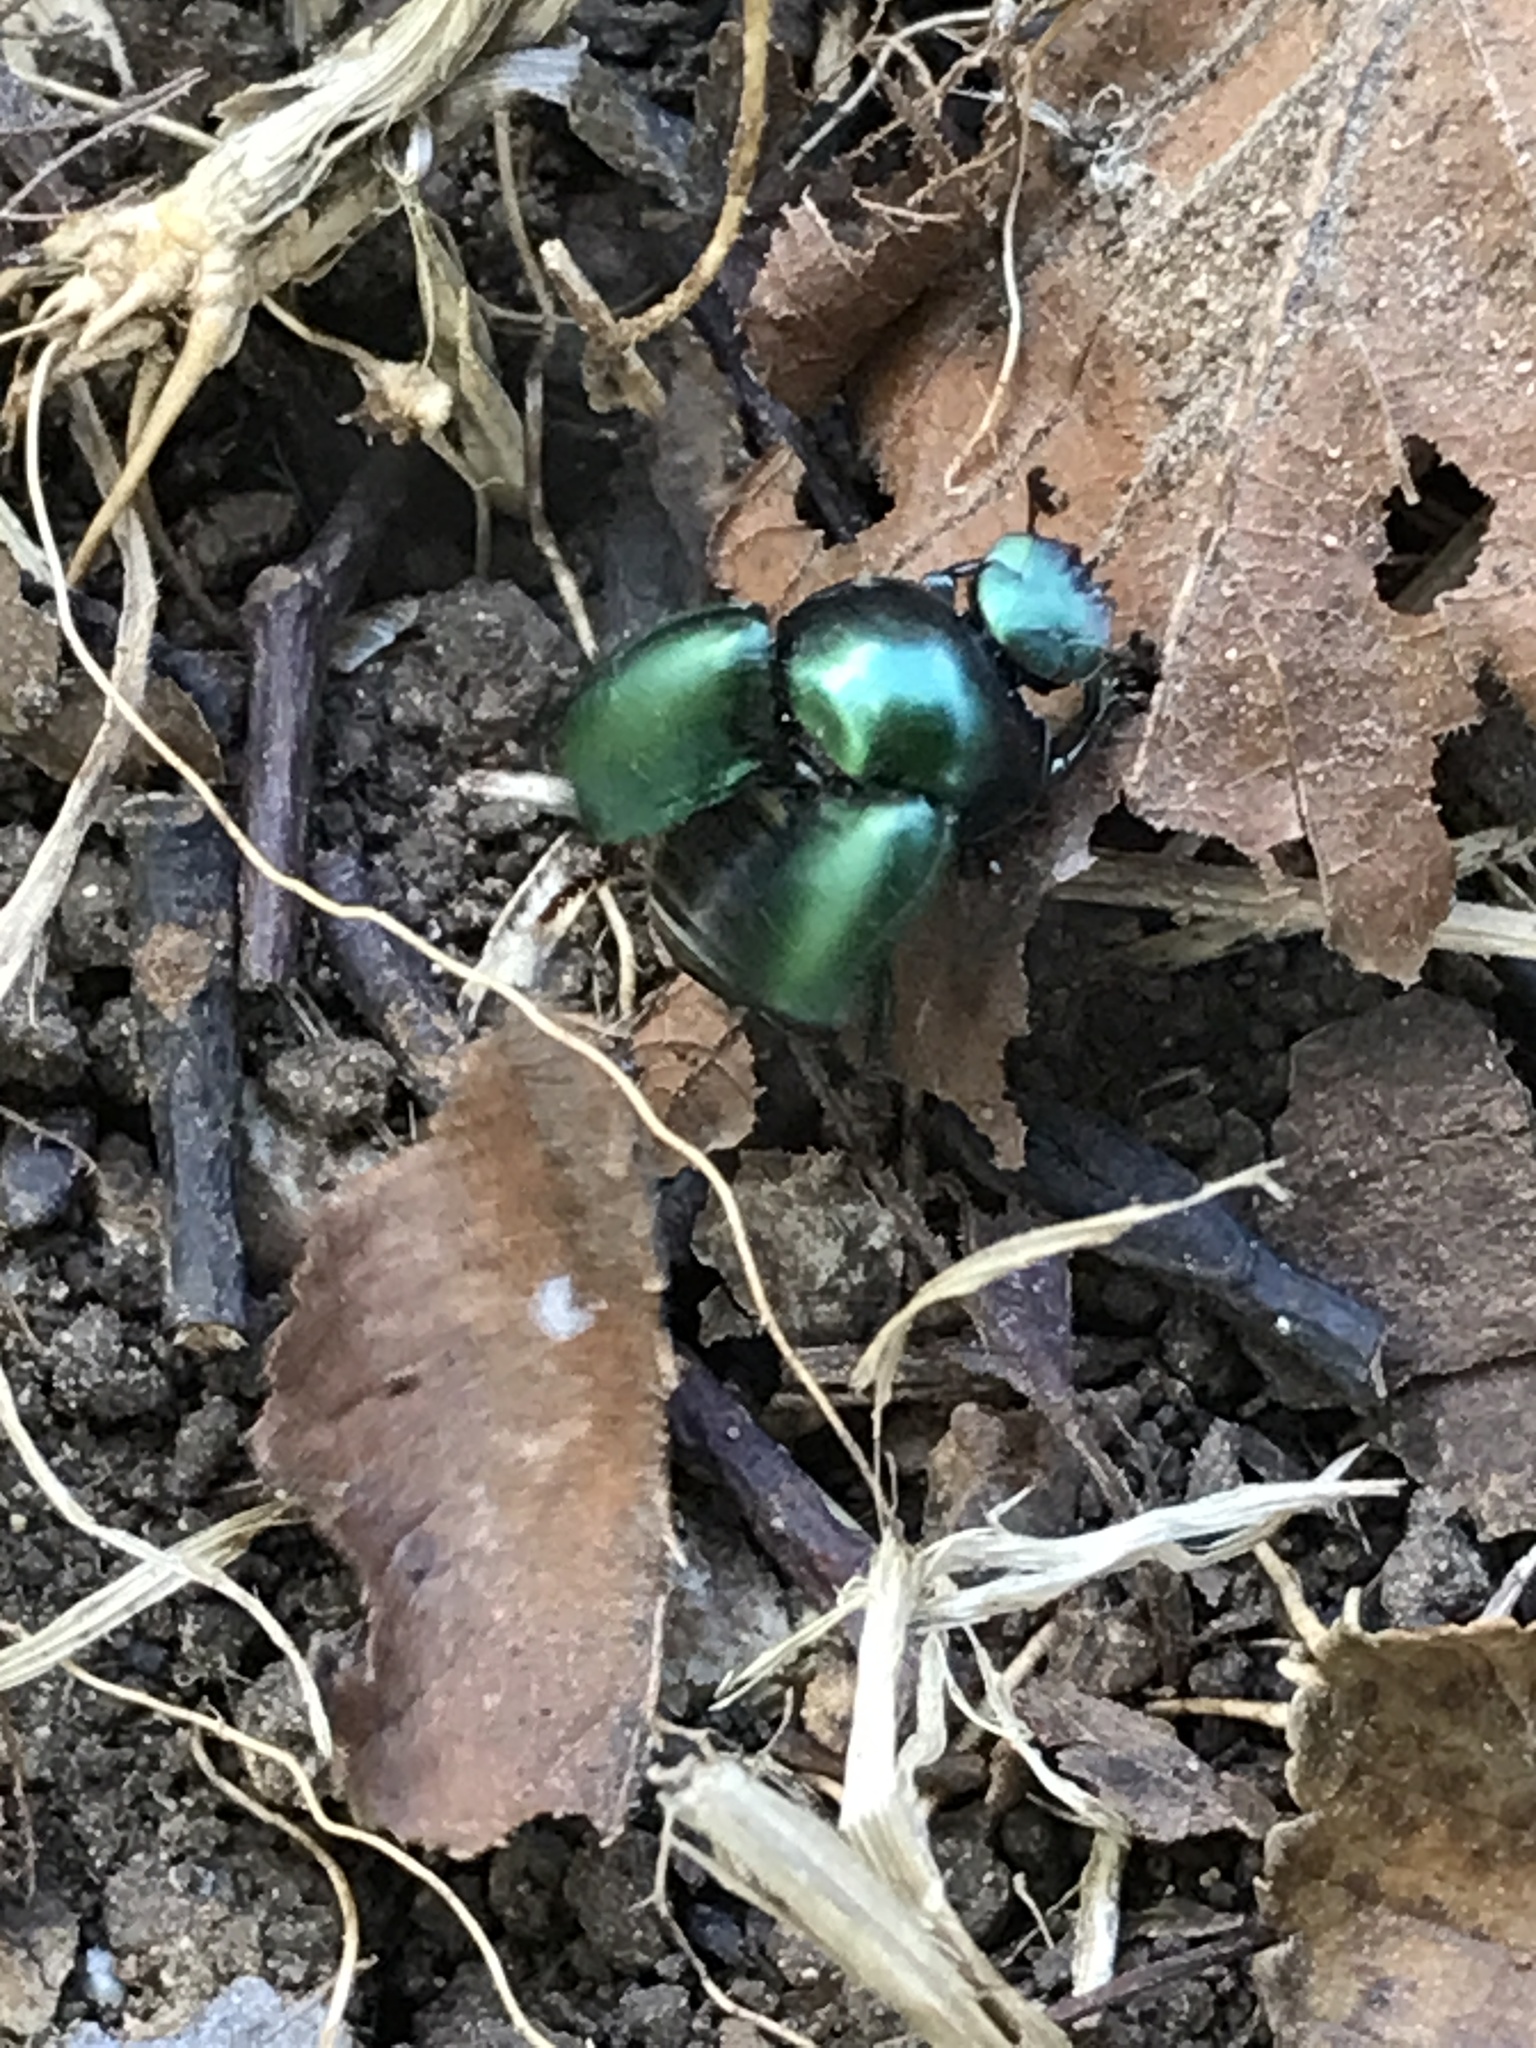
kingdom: Animalia
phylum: Arthropoda
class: Insecta
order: Coleoptera
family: Scarabaeidae
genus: Canthon
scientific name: Canthon cyanellus
